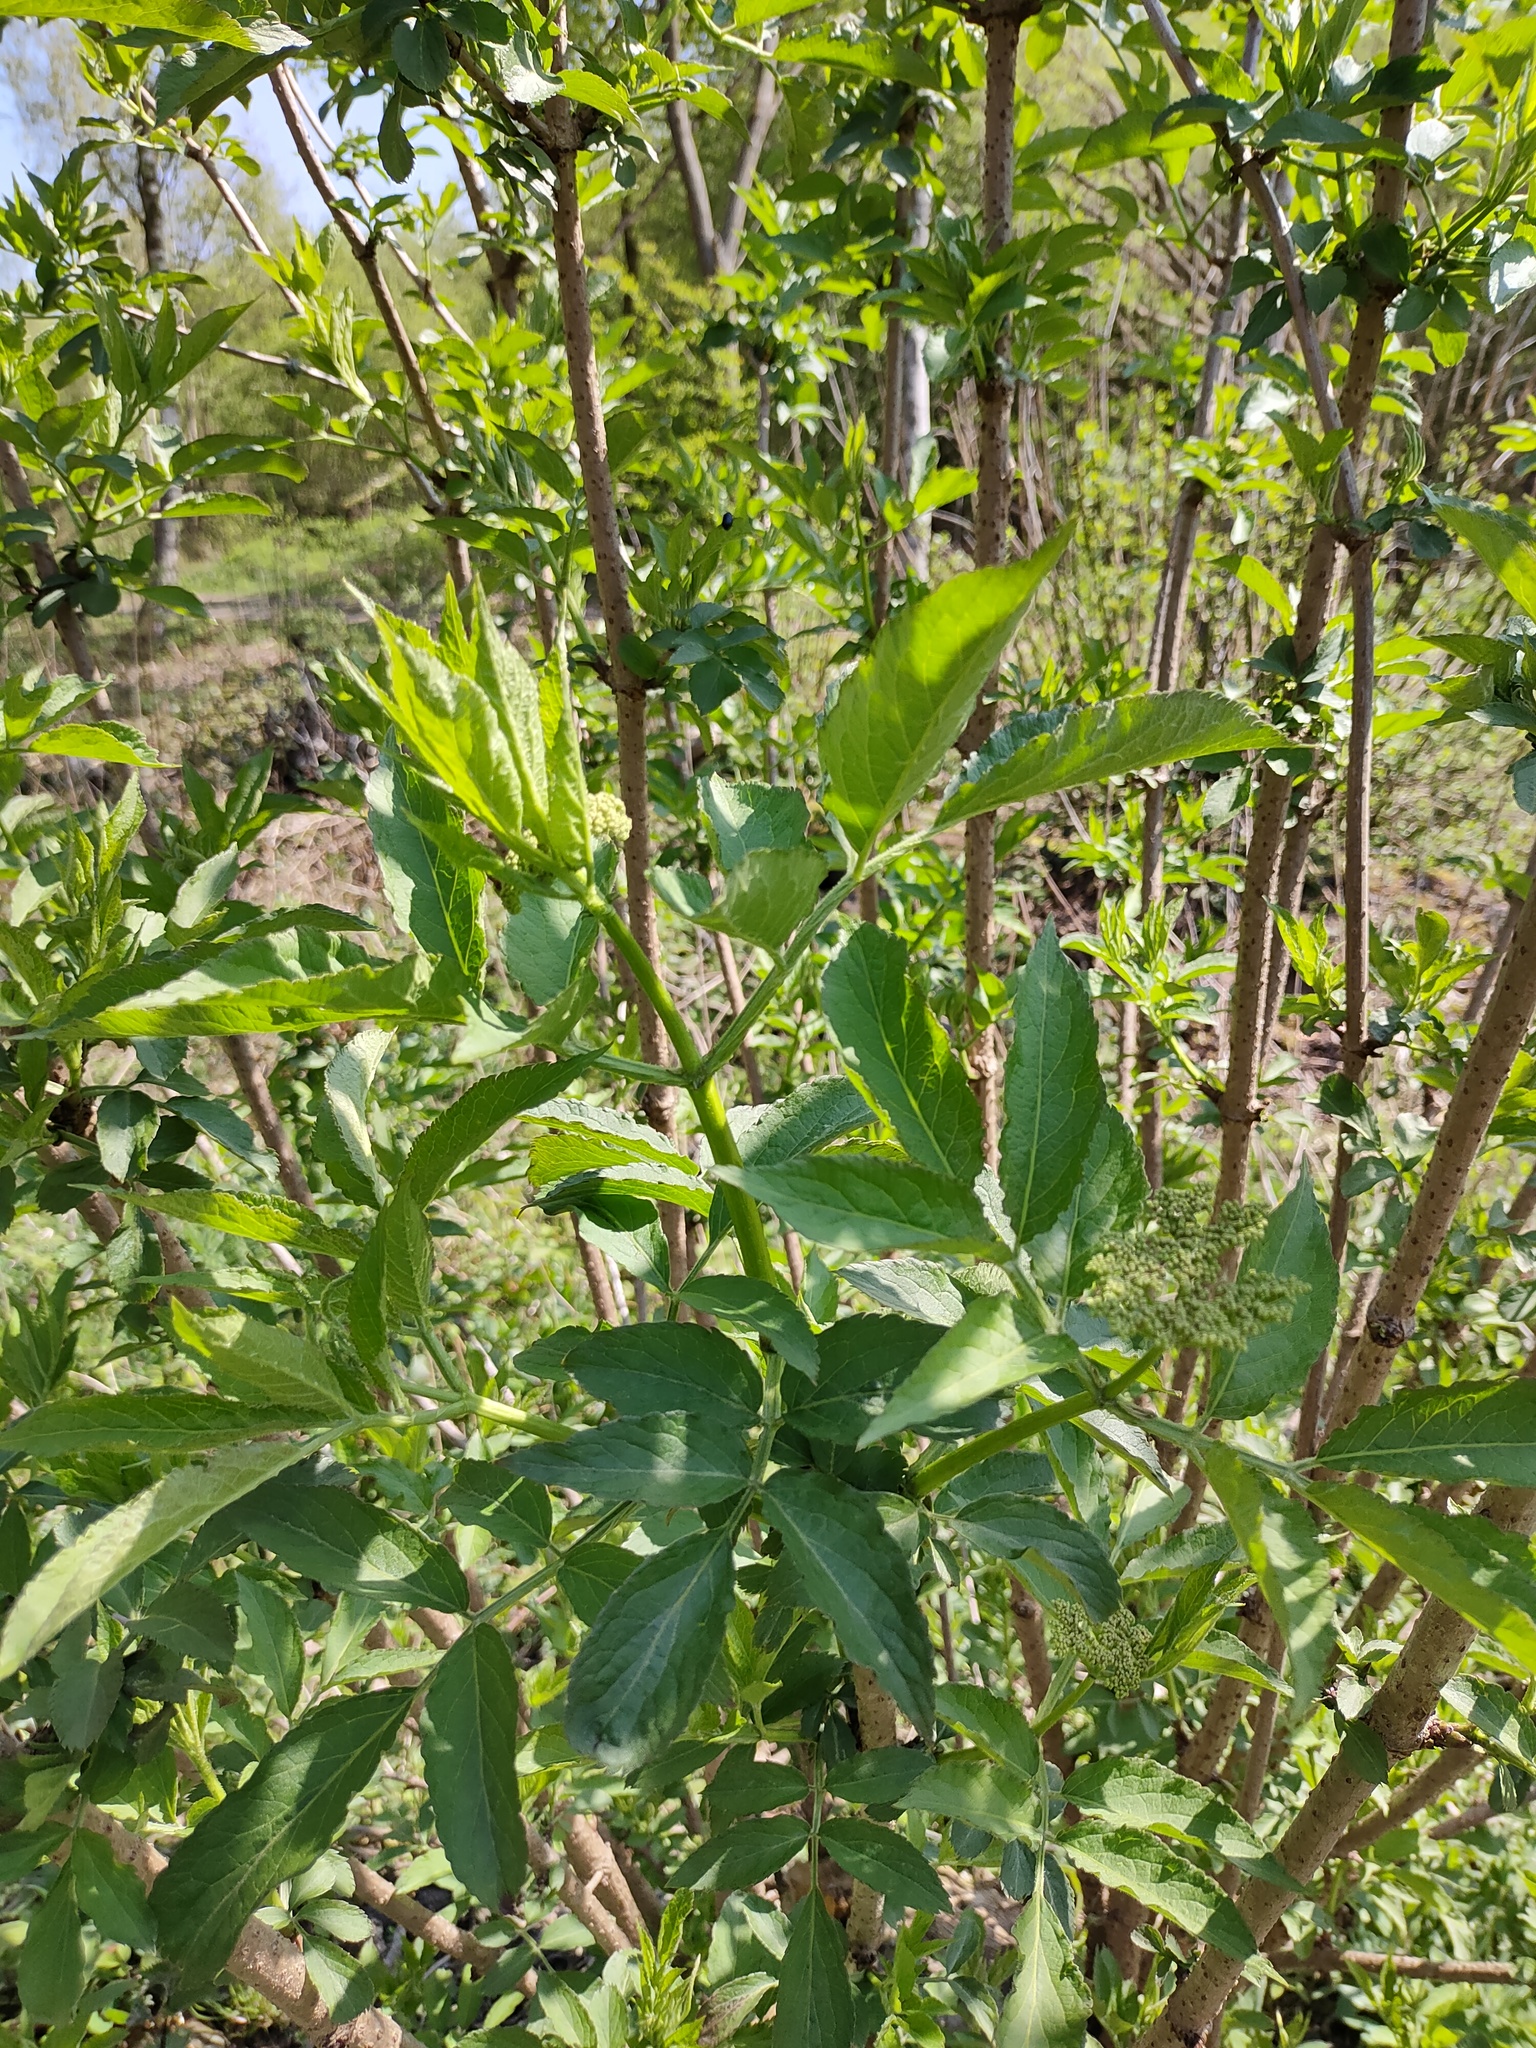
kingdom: Plantae
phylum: Tracheophyta
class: Magnoliopsida
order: Dipsacales
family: Viburnaceae
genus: Sambucus
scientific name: Sambucus nigra
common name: Elder
